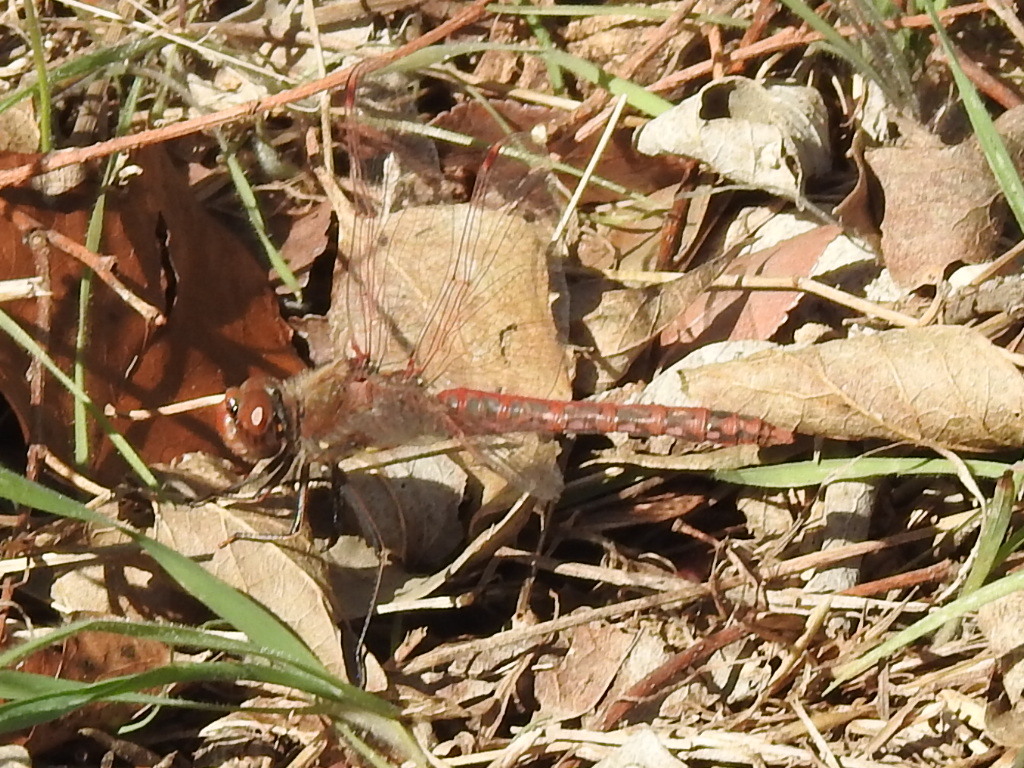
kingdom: Animalia
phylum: Arthropoda
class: Insecta
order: Odonata
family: Libellulidae
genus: Sympetrum
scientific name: Sympetrum corruptum
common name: Variegated meadowhawk
